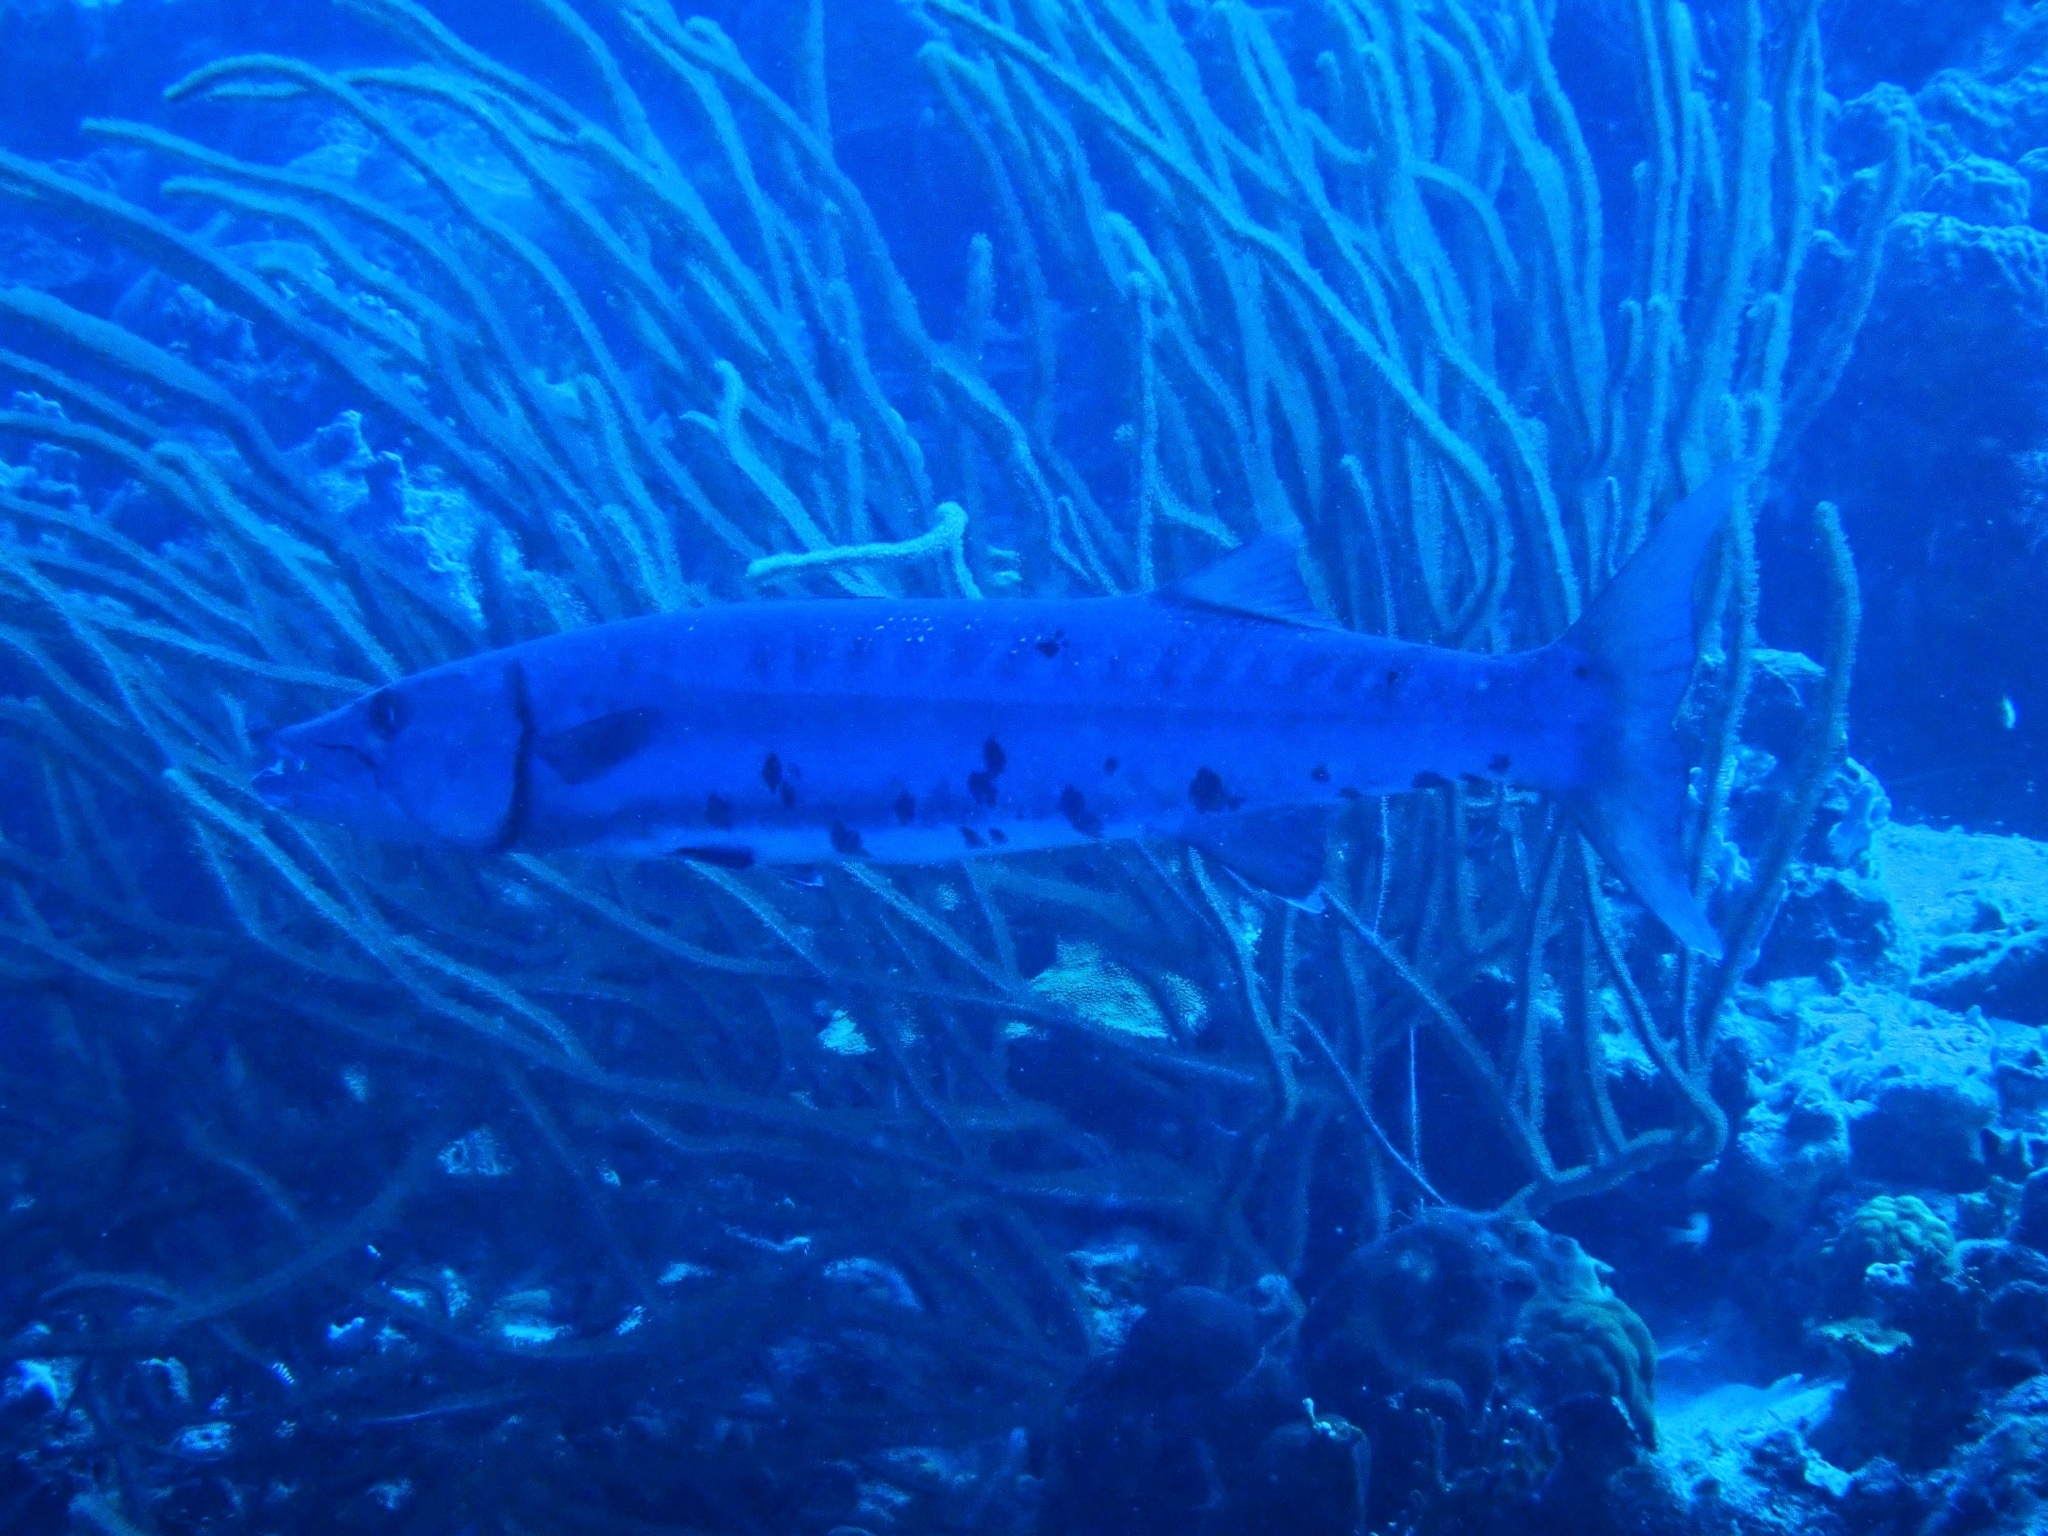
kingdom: Animalia
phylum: Chordata
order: Perciformes
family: Sphyraenidae
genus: Sphyraena
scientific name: Sphyraena barracuda
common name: Great barracuda
